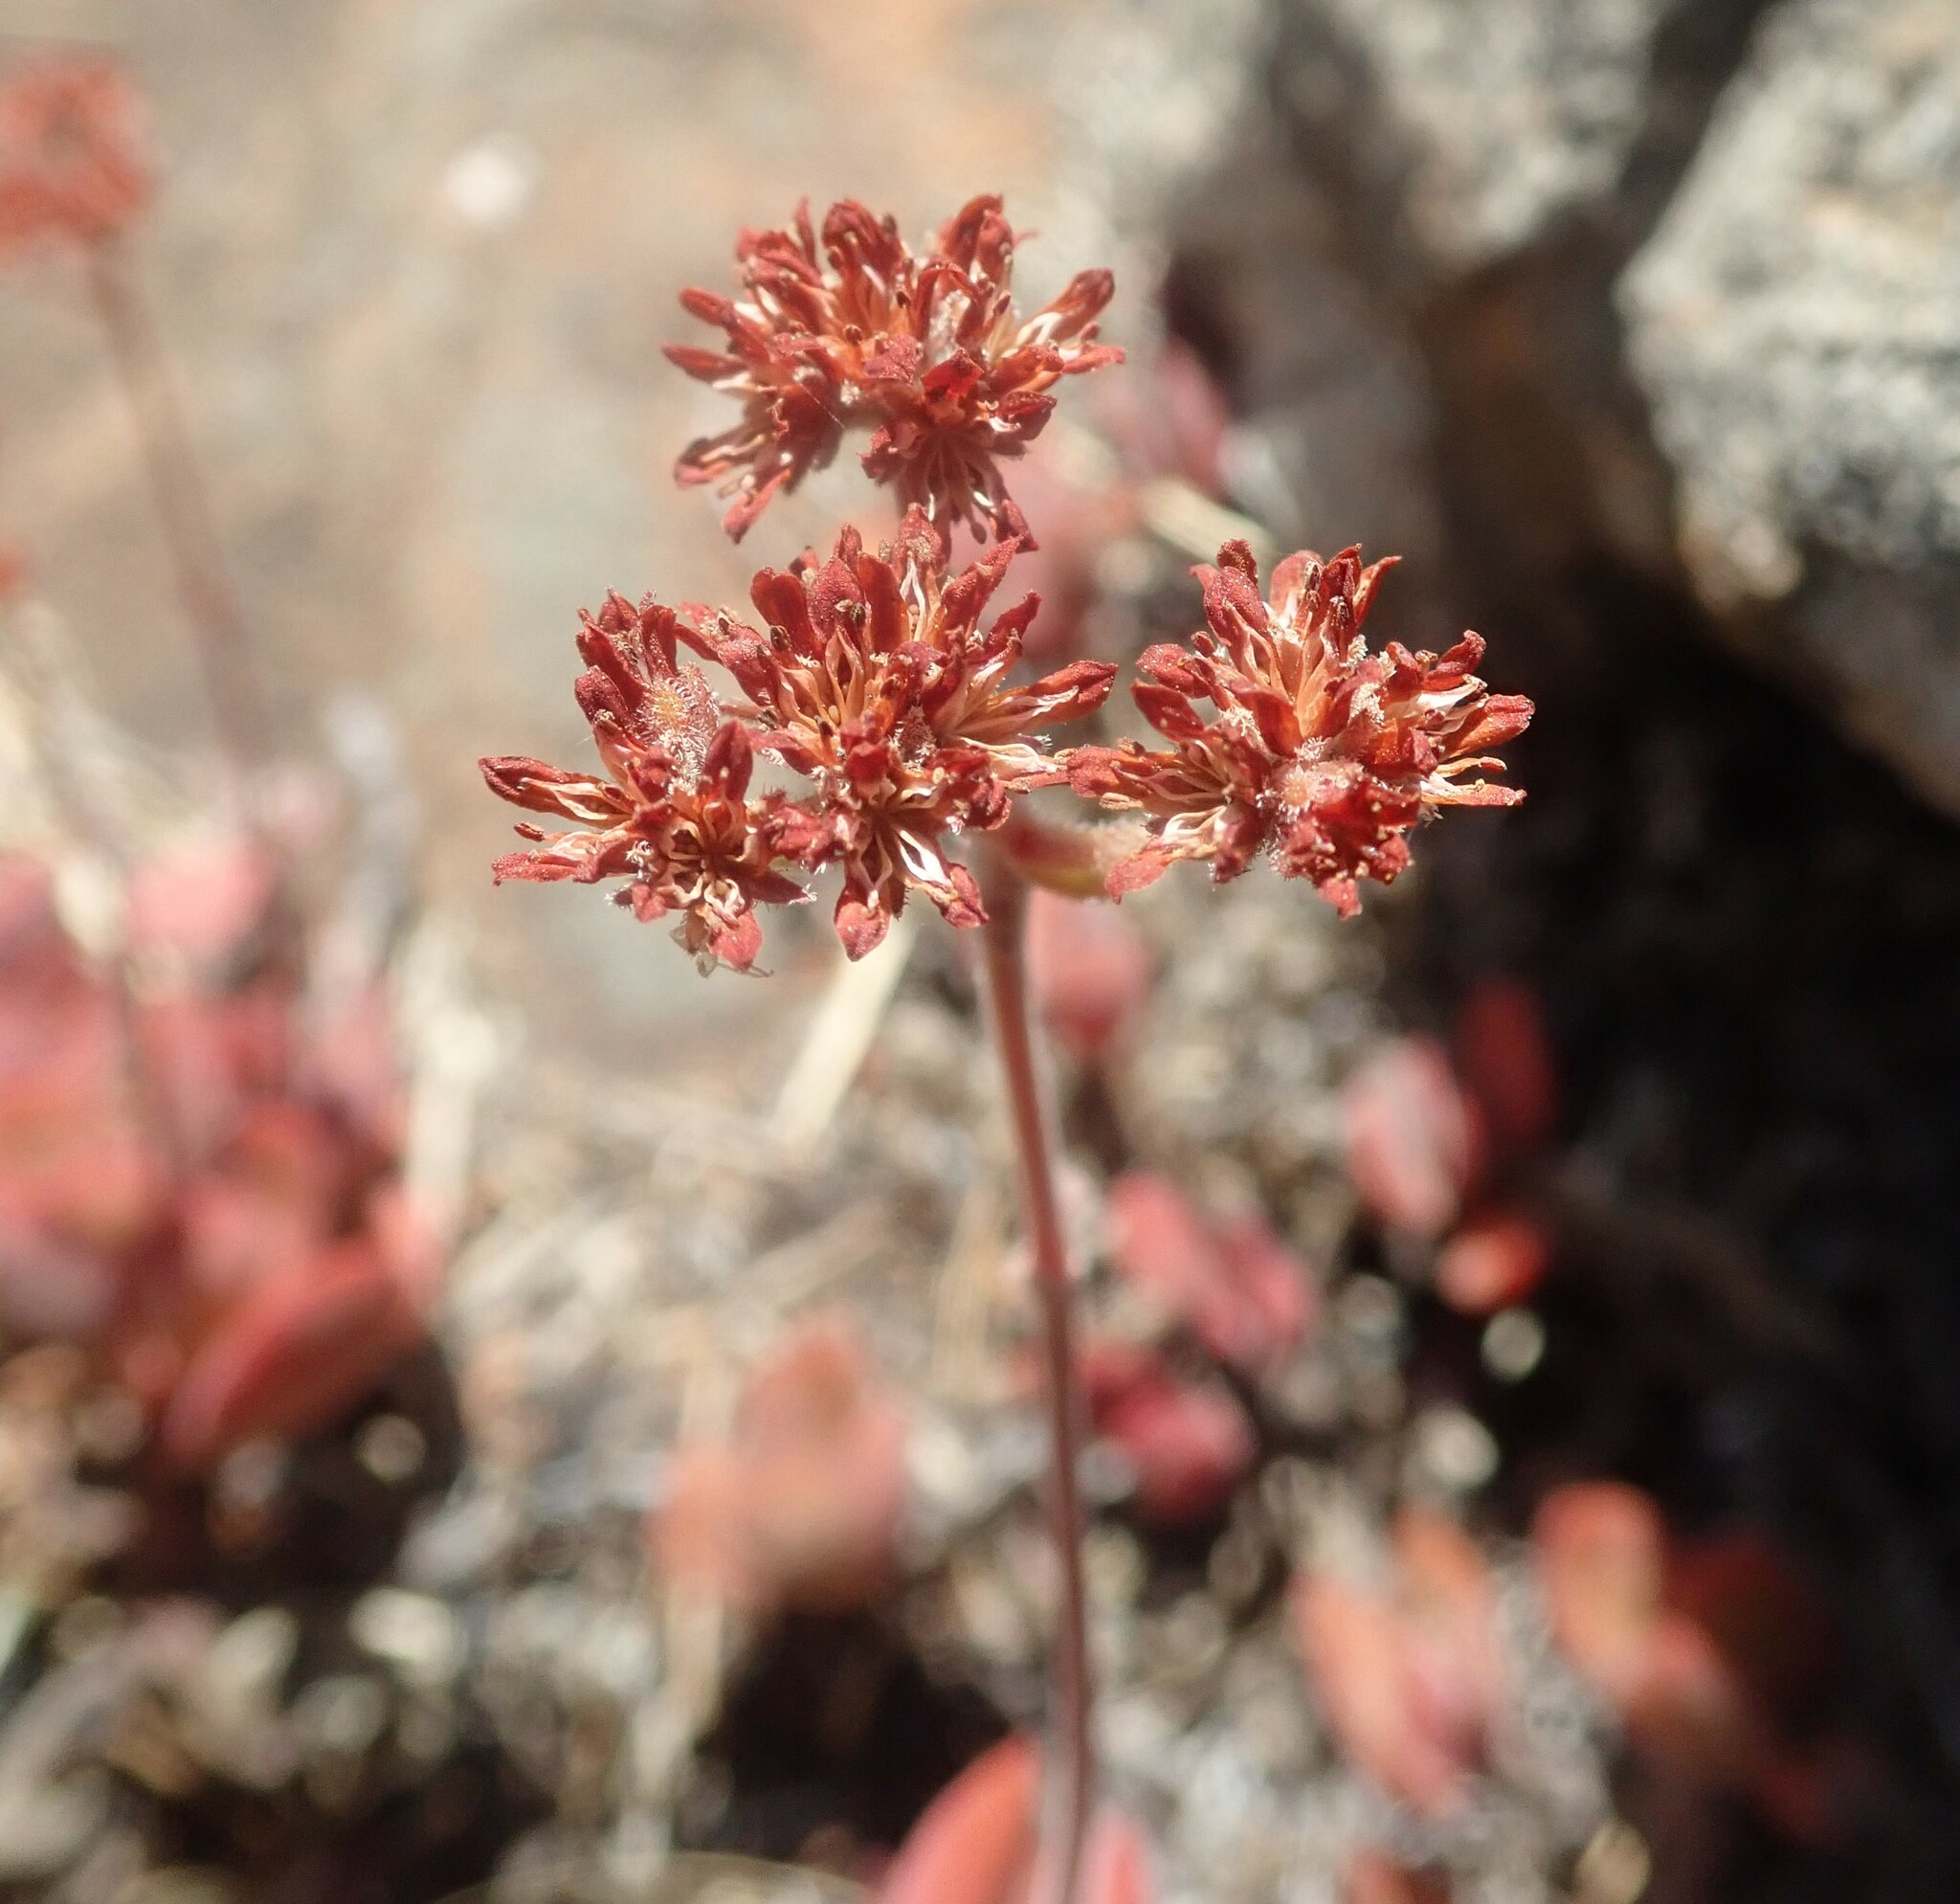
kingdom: Plantae
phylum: Tracheophyta
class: Magnoliopsida
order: Saxifragales
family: Crassulaceae
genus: Crassula
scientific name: Crassula globularioides
